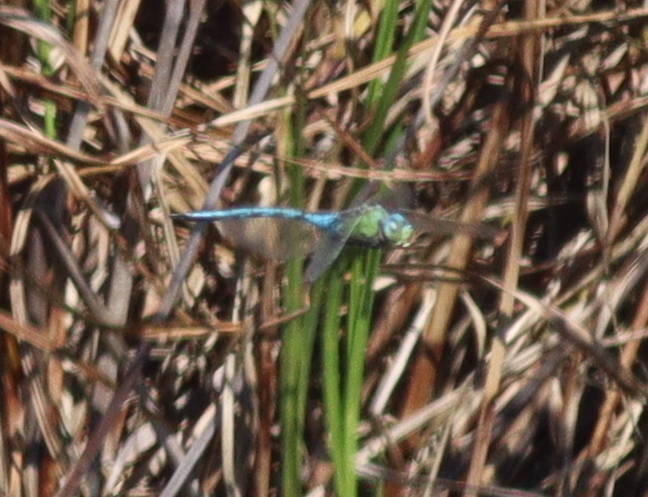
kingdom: Animalia
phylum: Arthropoda
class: Insecta
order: Odonata
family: Aeshnidae
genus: Anax
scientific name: Anax imperator
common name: Emperor dragonfly
